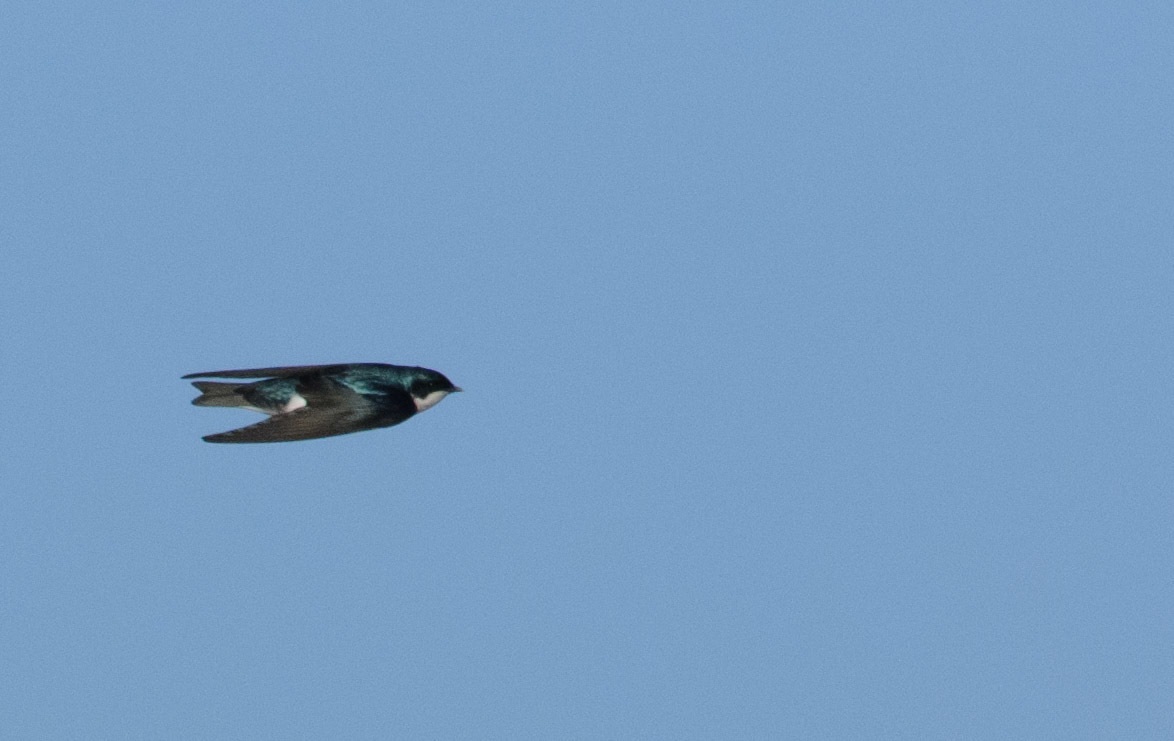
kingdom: Animalia
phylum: Chordata
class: Aves
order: Passeriformes
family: Hirundinidae
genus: Tachycineta
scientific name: Tachycineta bicolor
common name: Tree swallow
